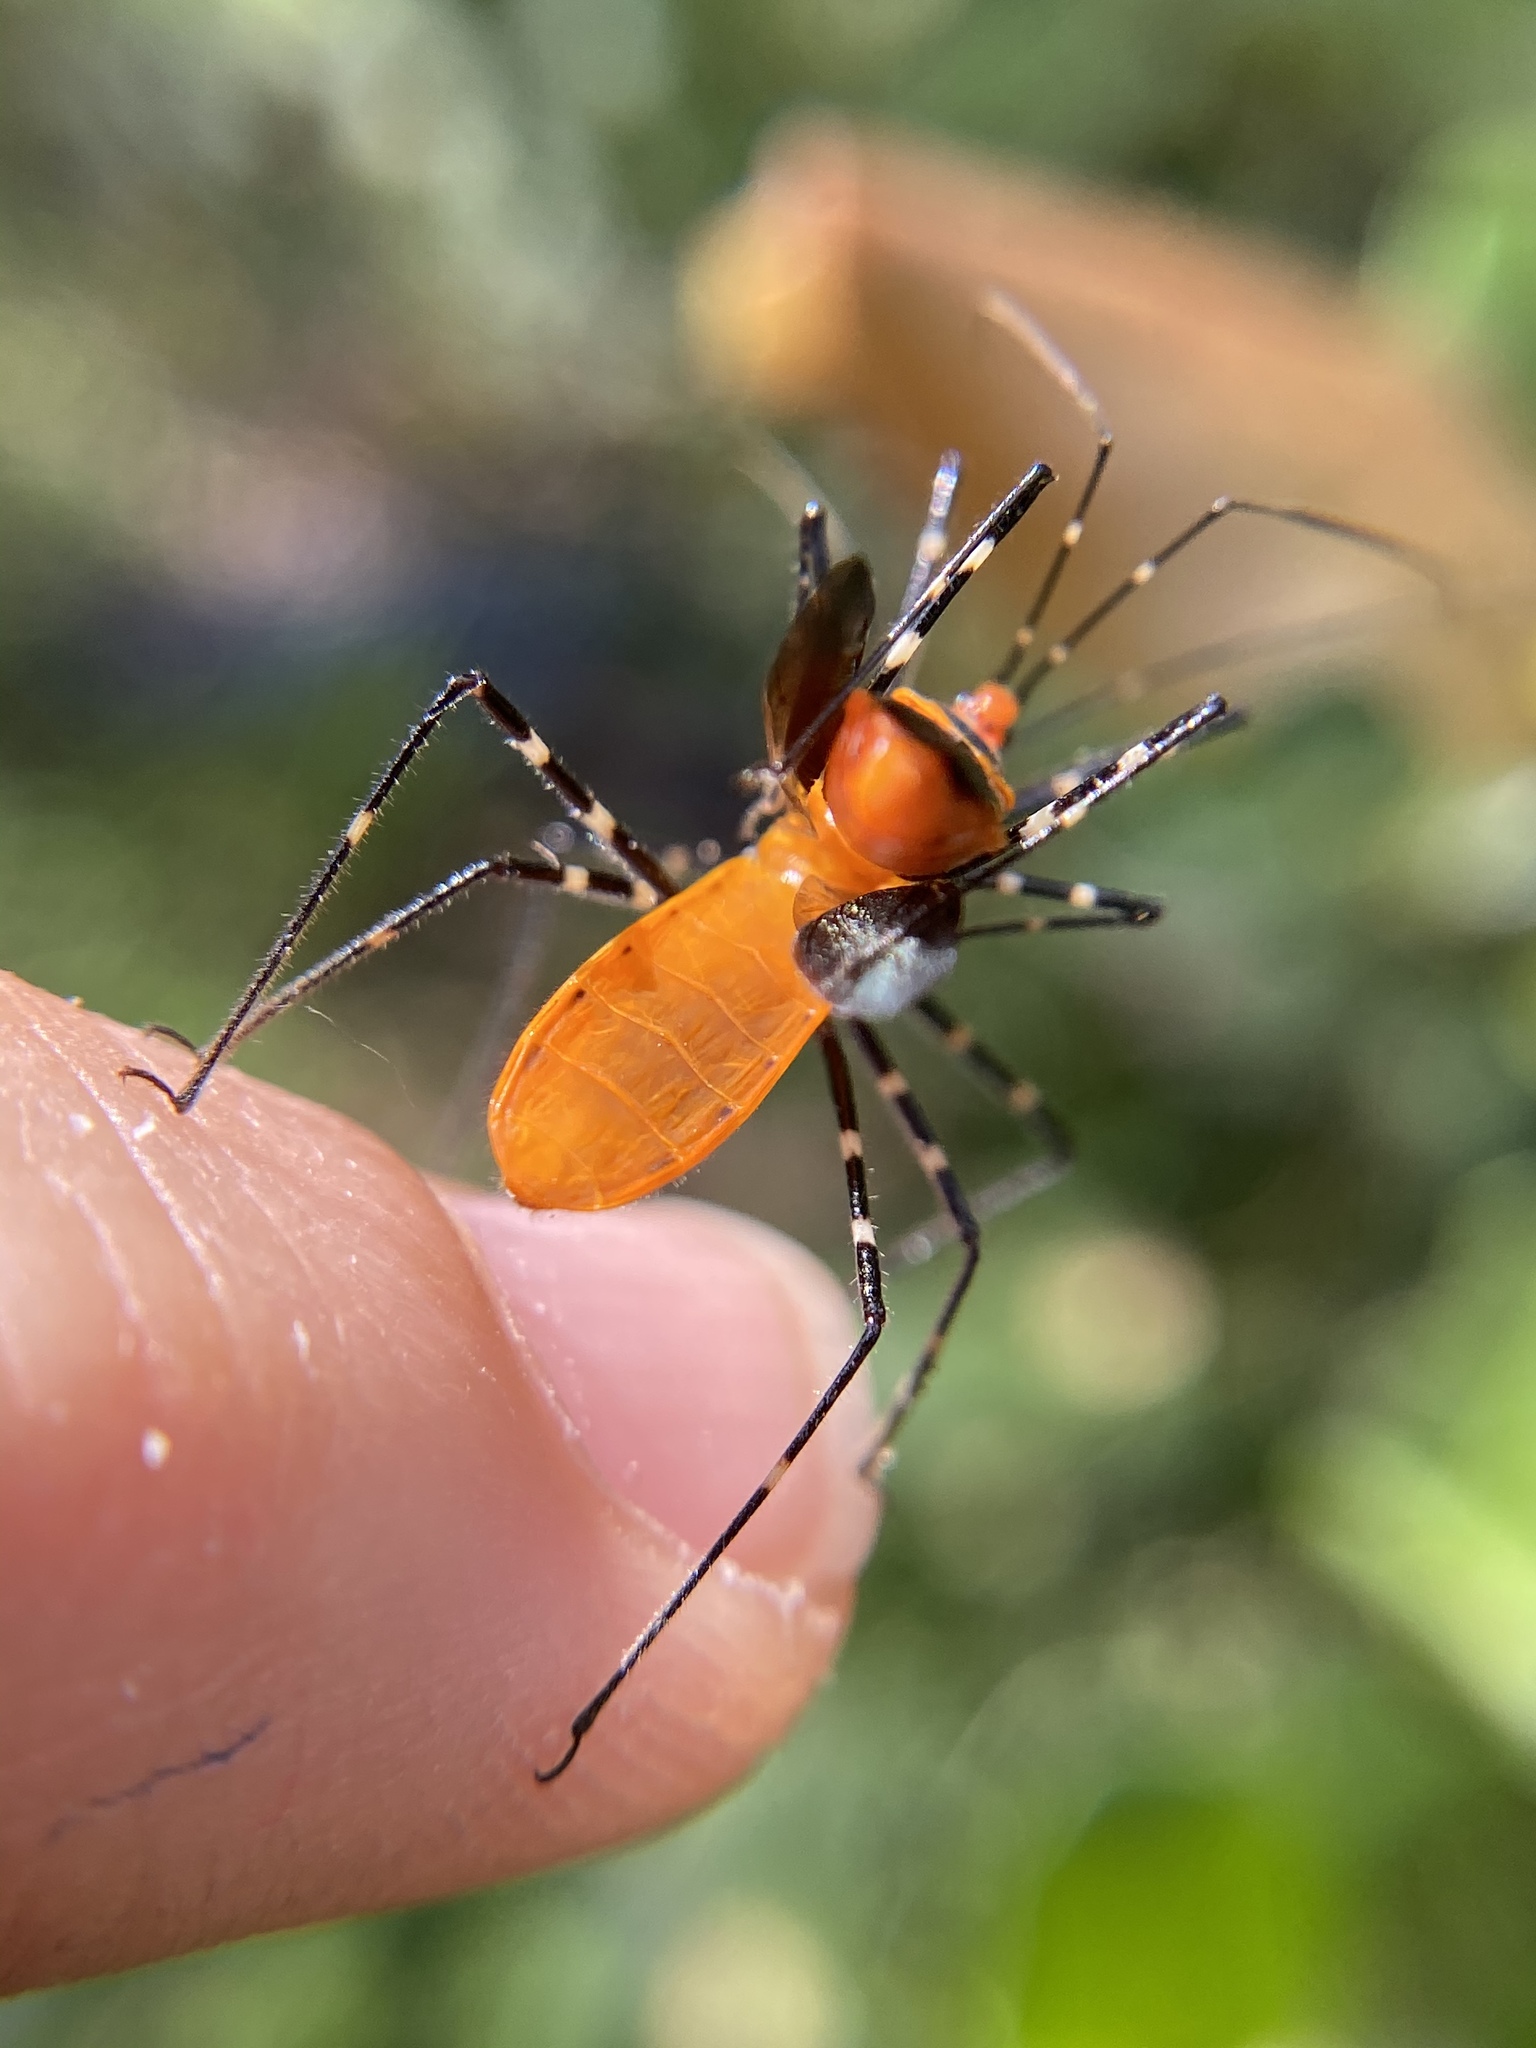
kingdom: Animalia
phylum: Arthropoda
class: Insecta
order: Hemiptera
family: Reduviidae
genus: Zelus
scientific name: Zelus longipes
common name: Milkweed assassin bug
